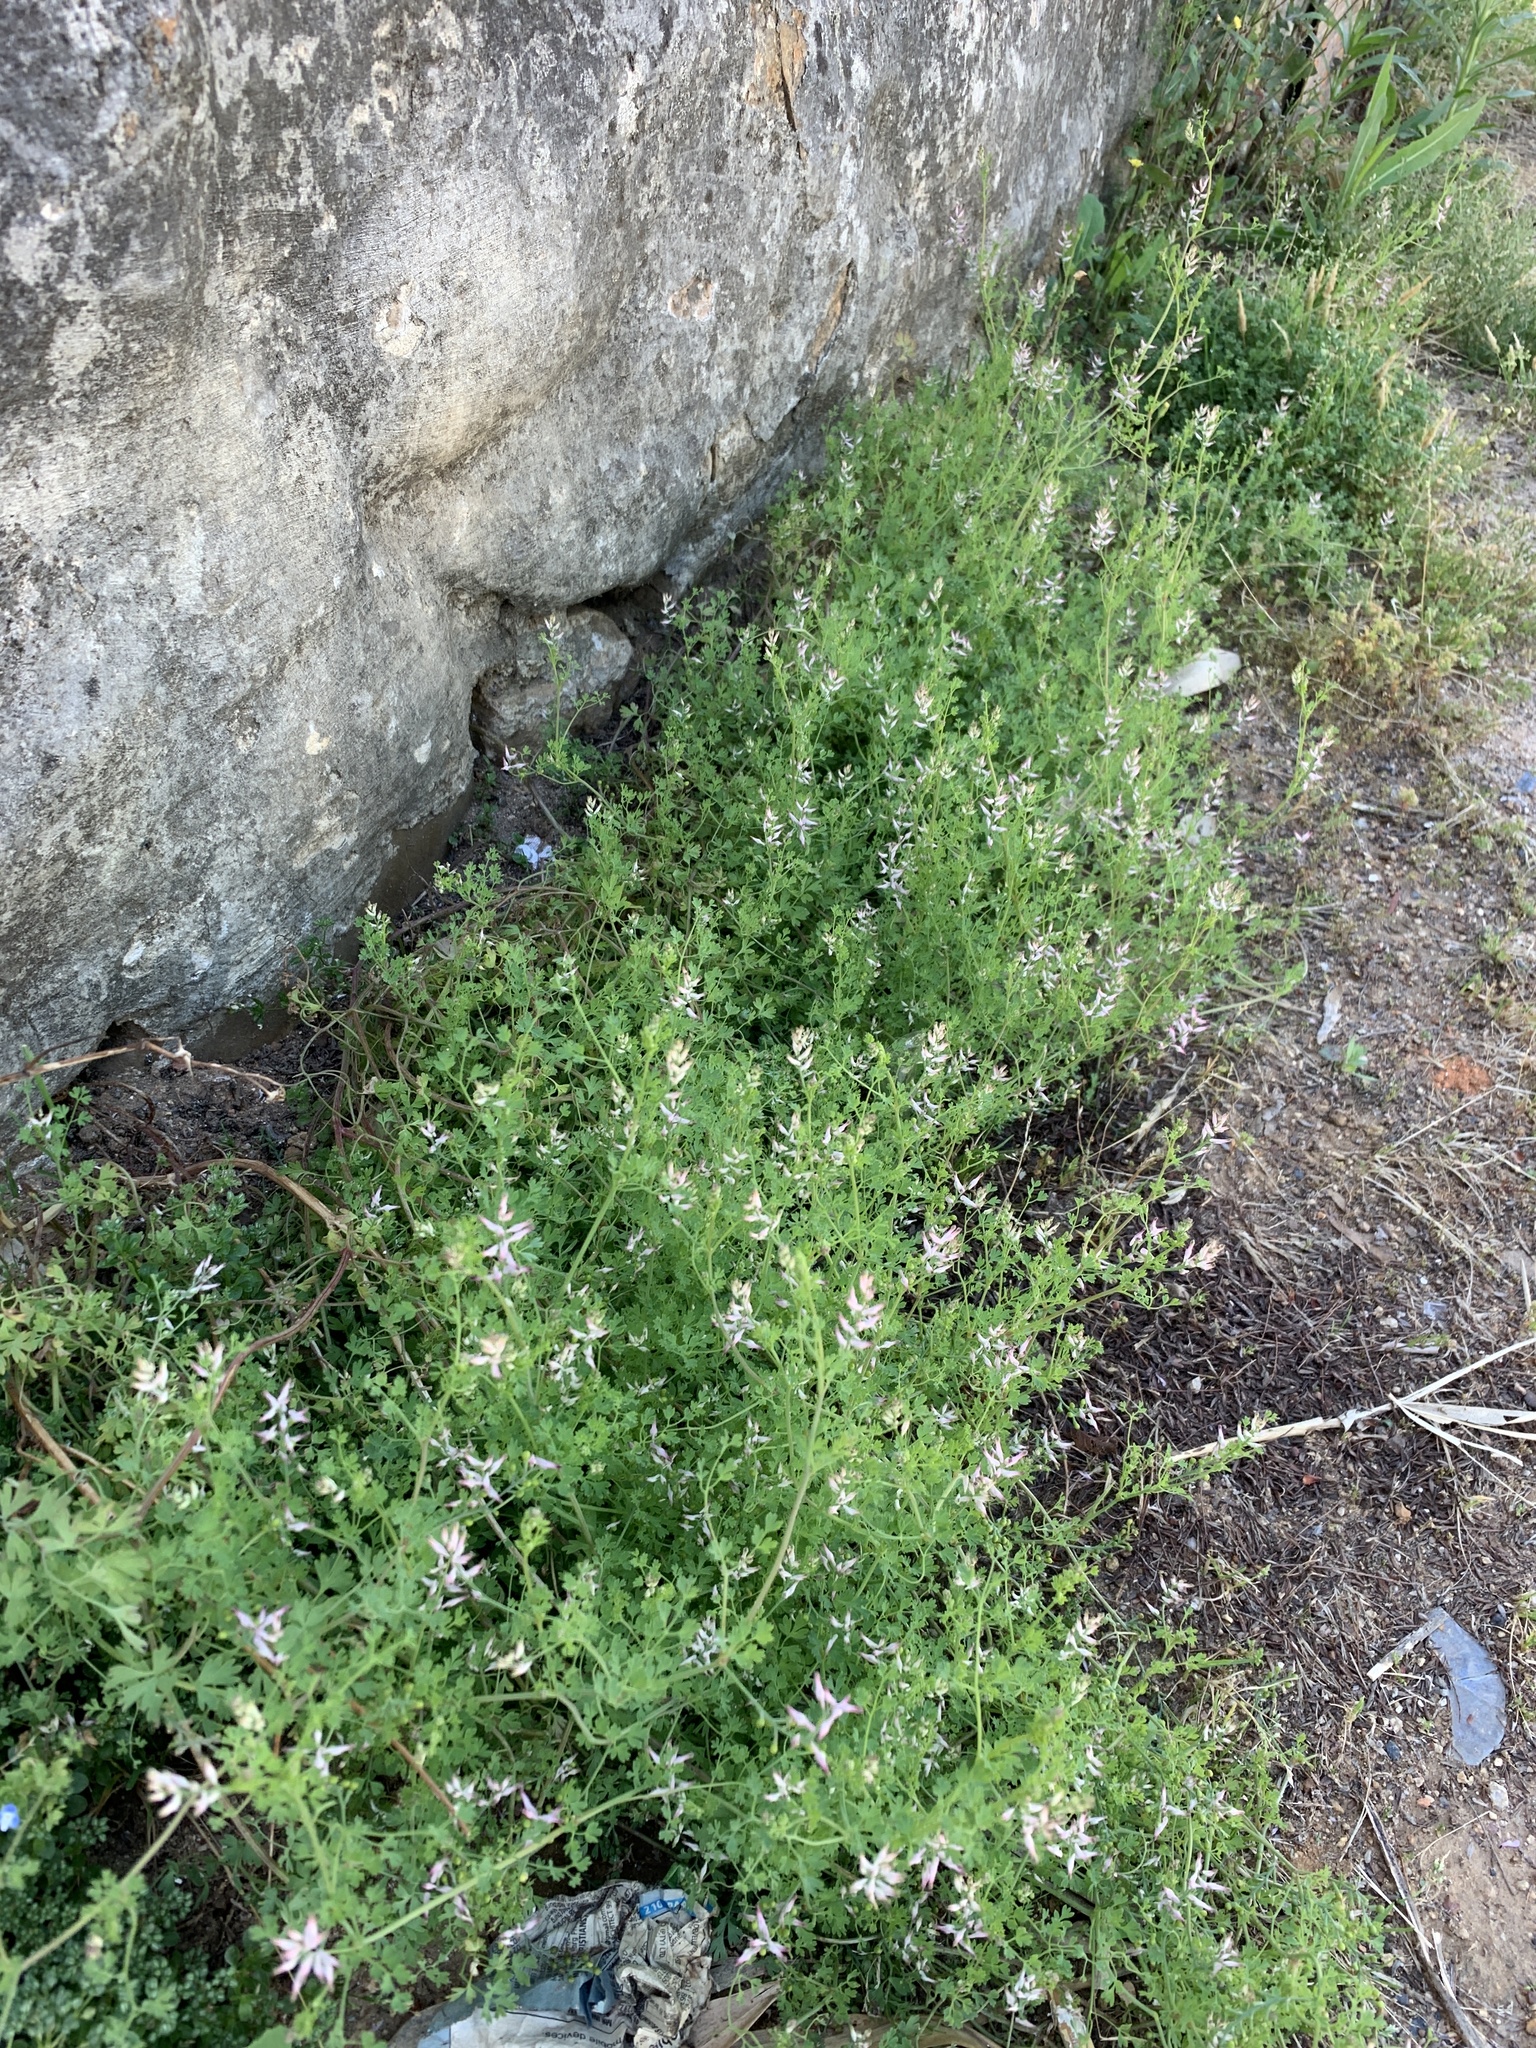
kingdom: Plantae
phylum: Tracheophyta
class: Magnoliopsida
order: Ranunculales
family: Papaveraceae
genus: Fumaria
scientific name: Fumaria muralis
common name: Common ramping-fumitory
